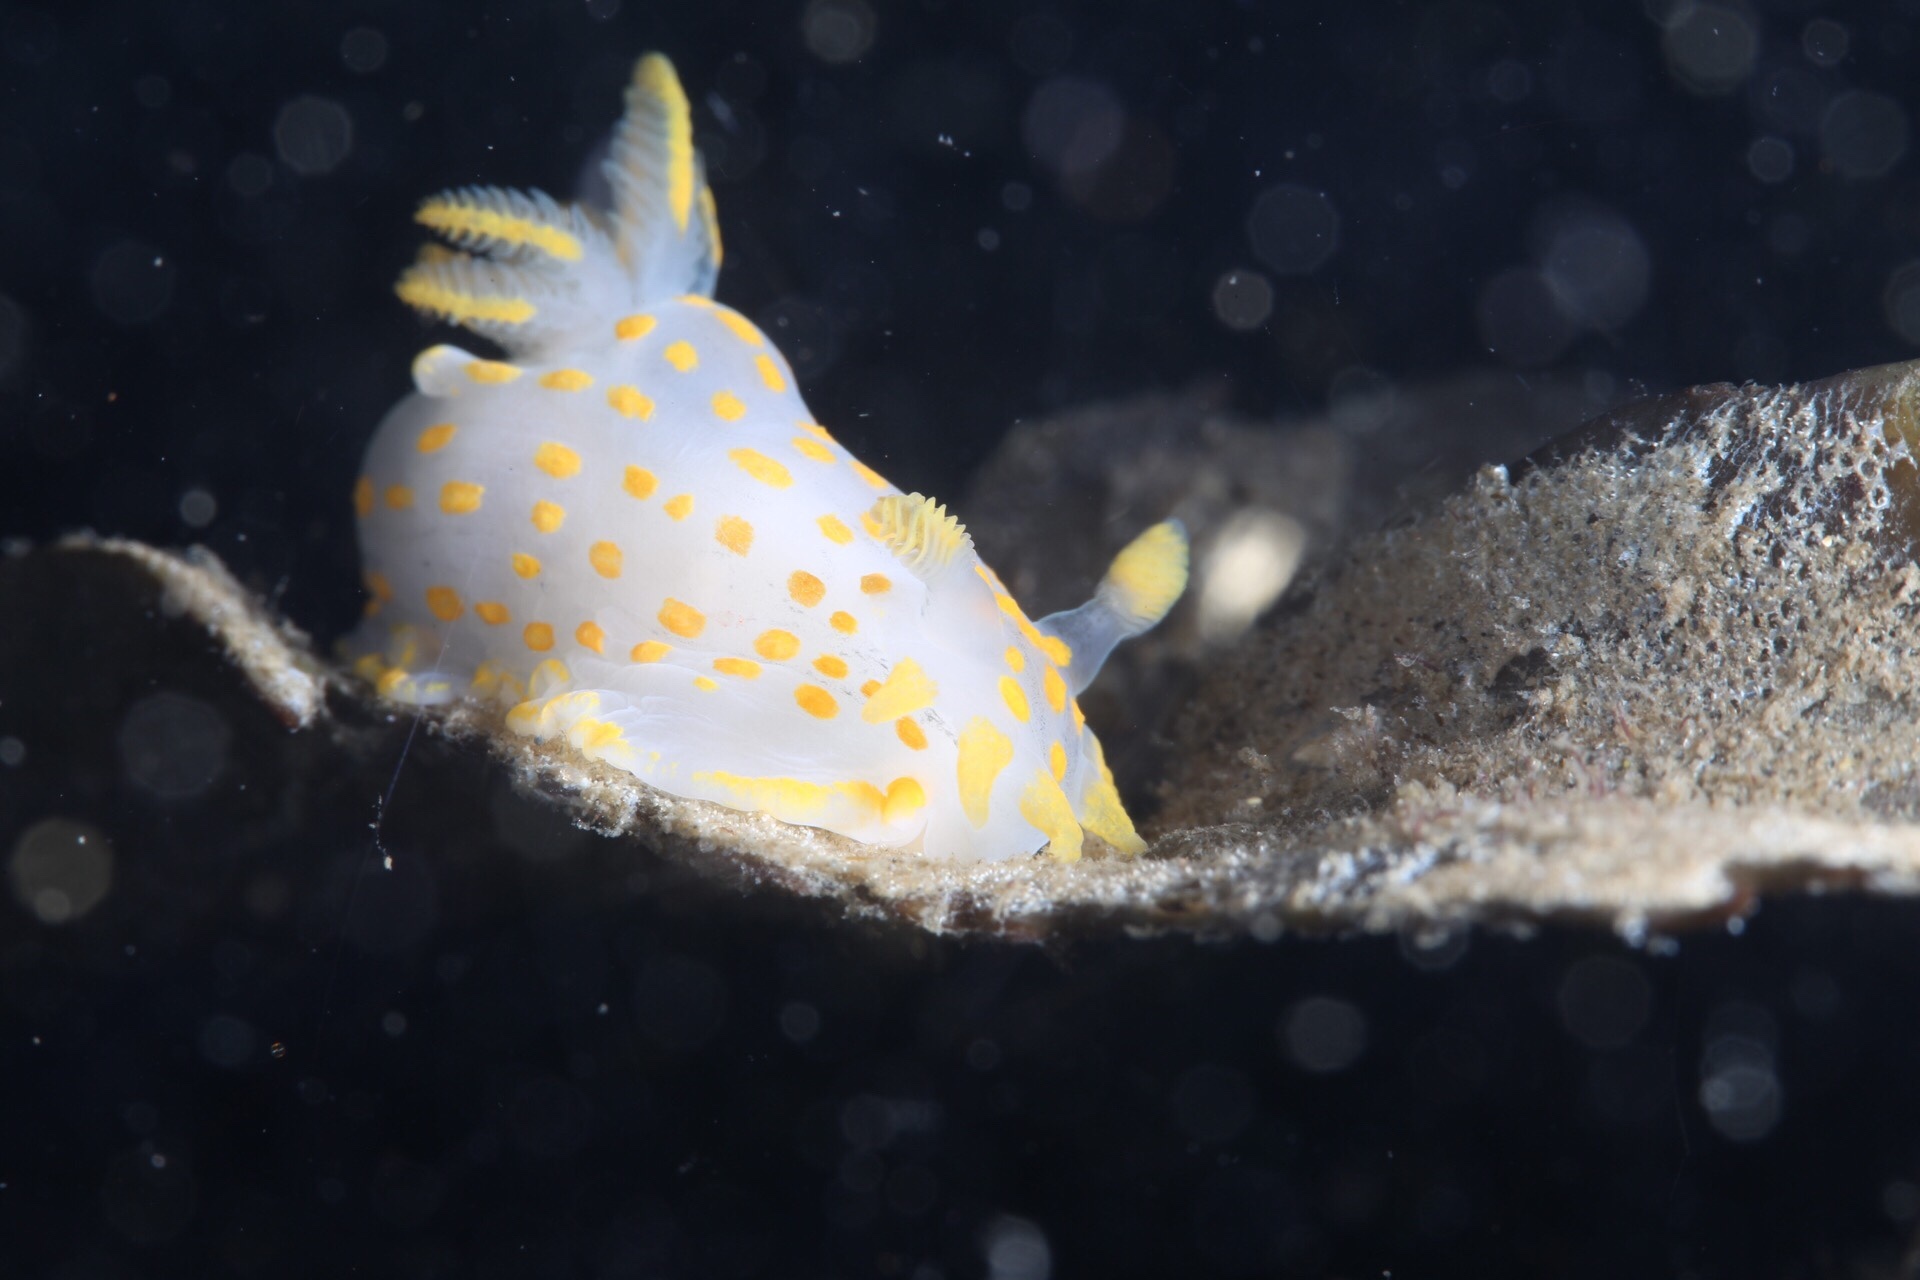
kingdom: Animalia
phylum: Mollusca
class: Gastropoda
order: Nudibranchia
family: Polyceridae
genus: Polycera
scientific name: Polycera quadrilineata
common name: Four-striped polycera
